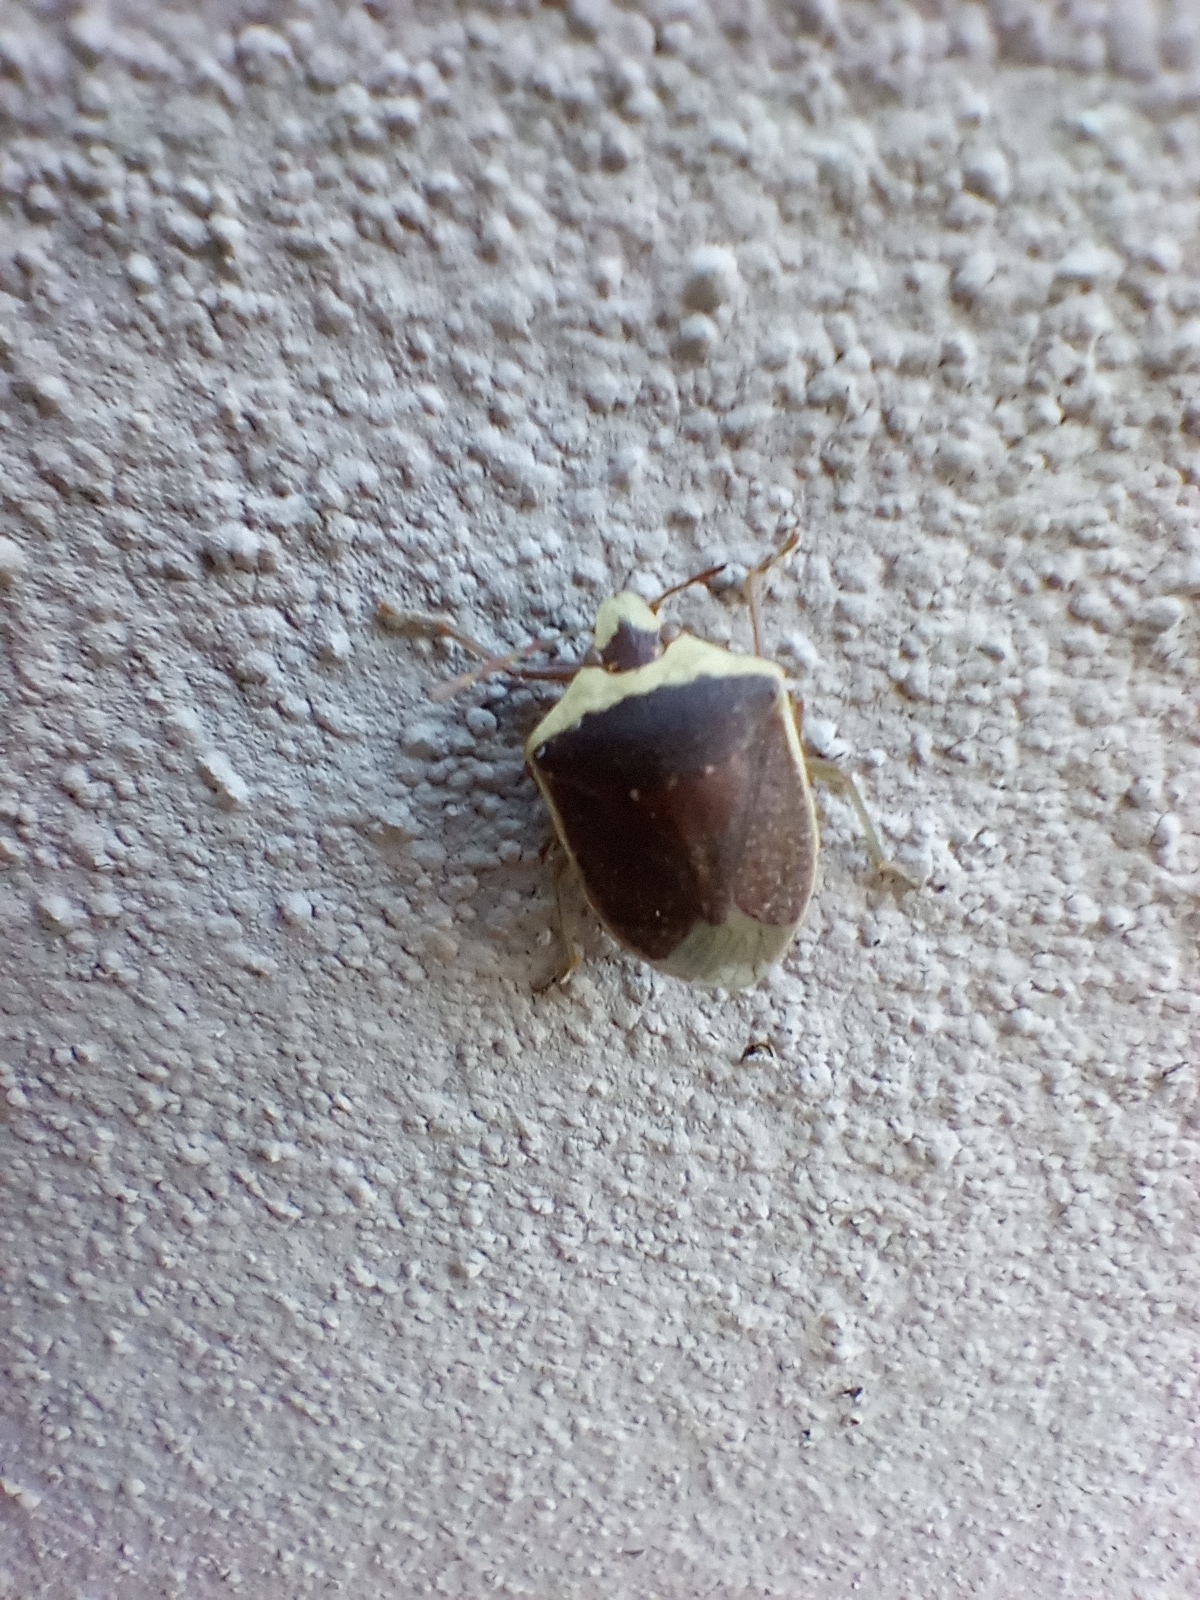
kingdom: Animalia
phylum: Arthropoda
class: Insecta
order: Hemiptera
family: Pentatomidae
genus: Nezara
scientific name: Nezara viridula
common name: Southern green stink bug
